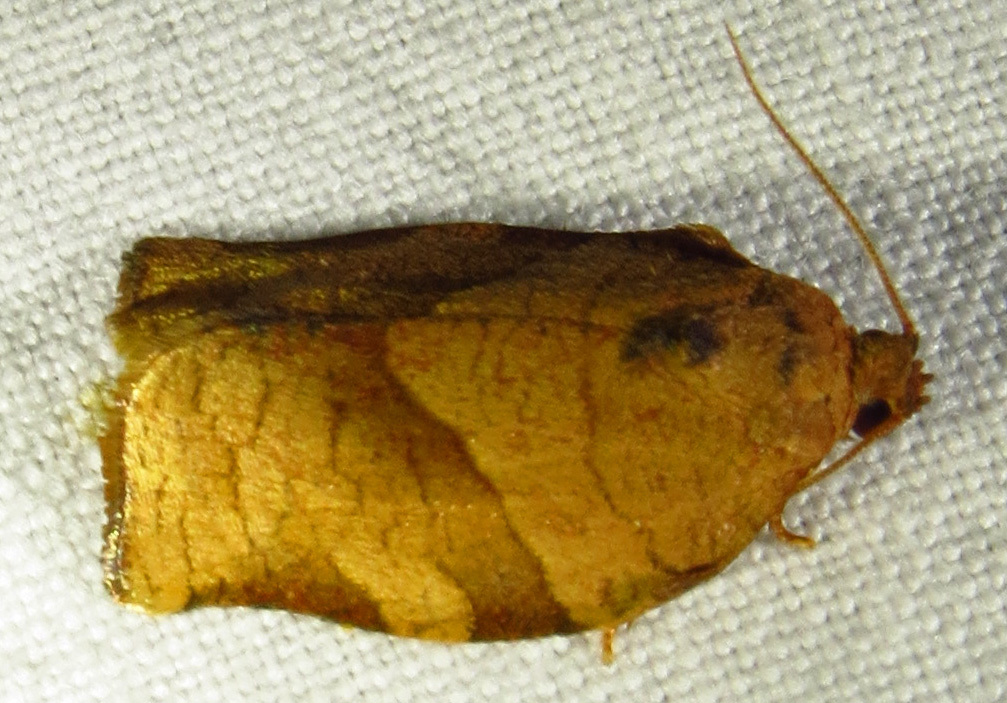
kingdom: Animalia
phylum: Arthropoda
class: Insecta
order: Lepidoptera
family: Tortricidae
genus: Choristoneura
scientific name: Choristoneura rosaceana
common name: Oblique-banded leafroller moth
